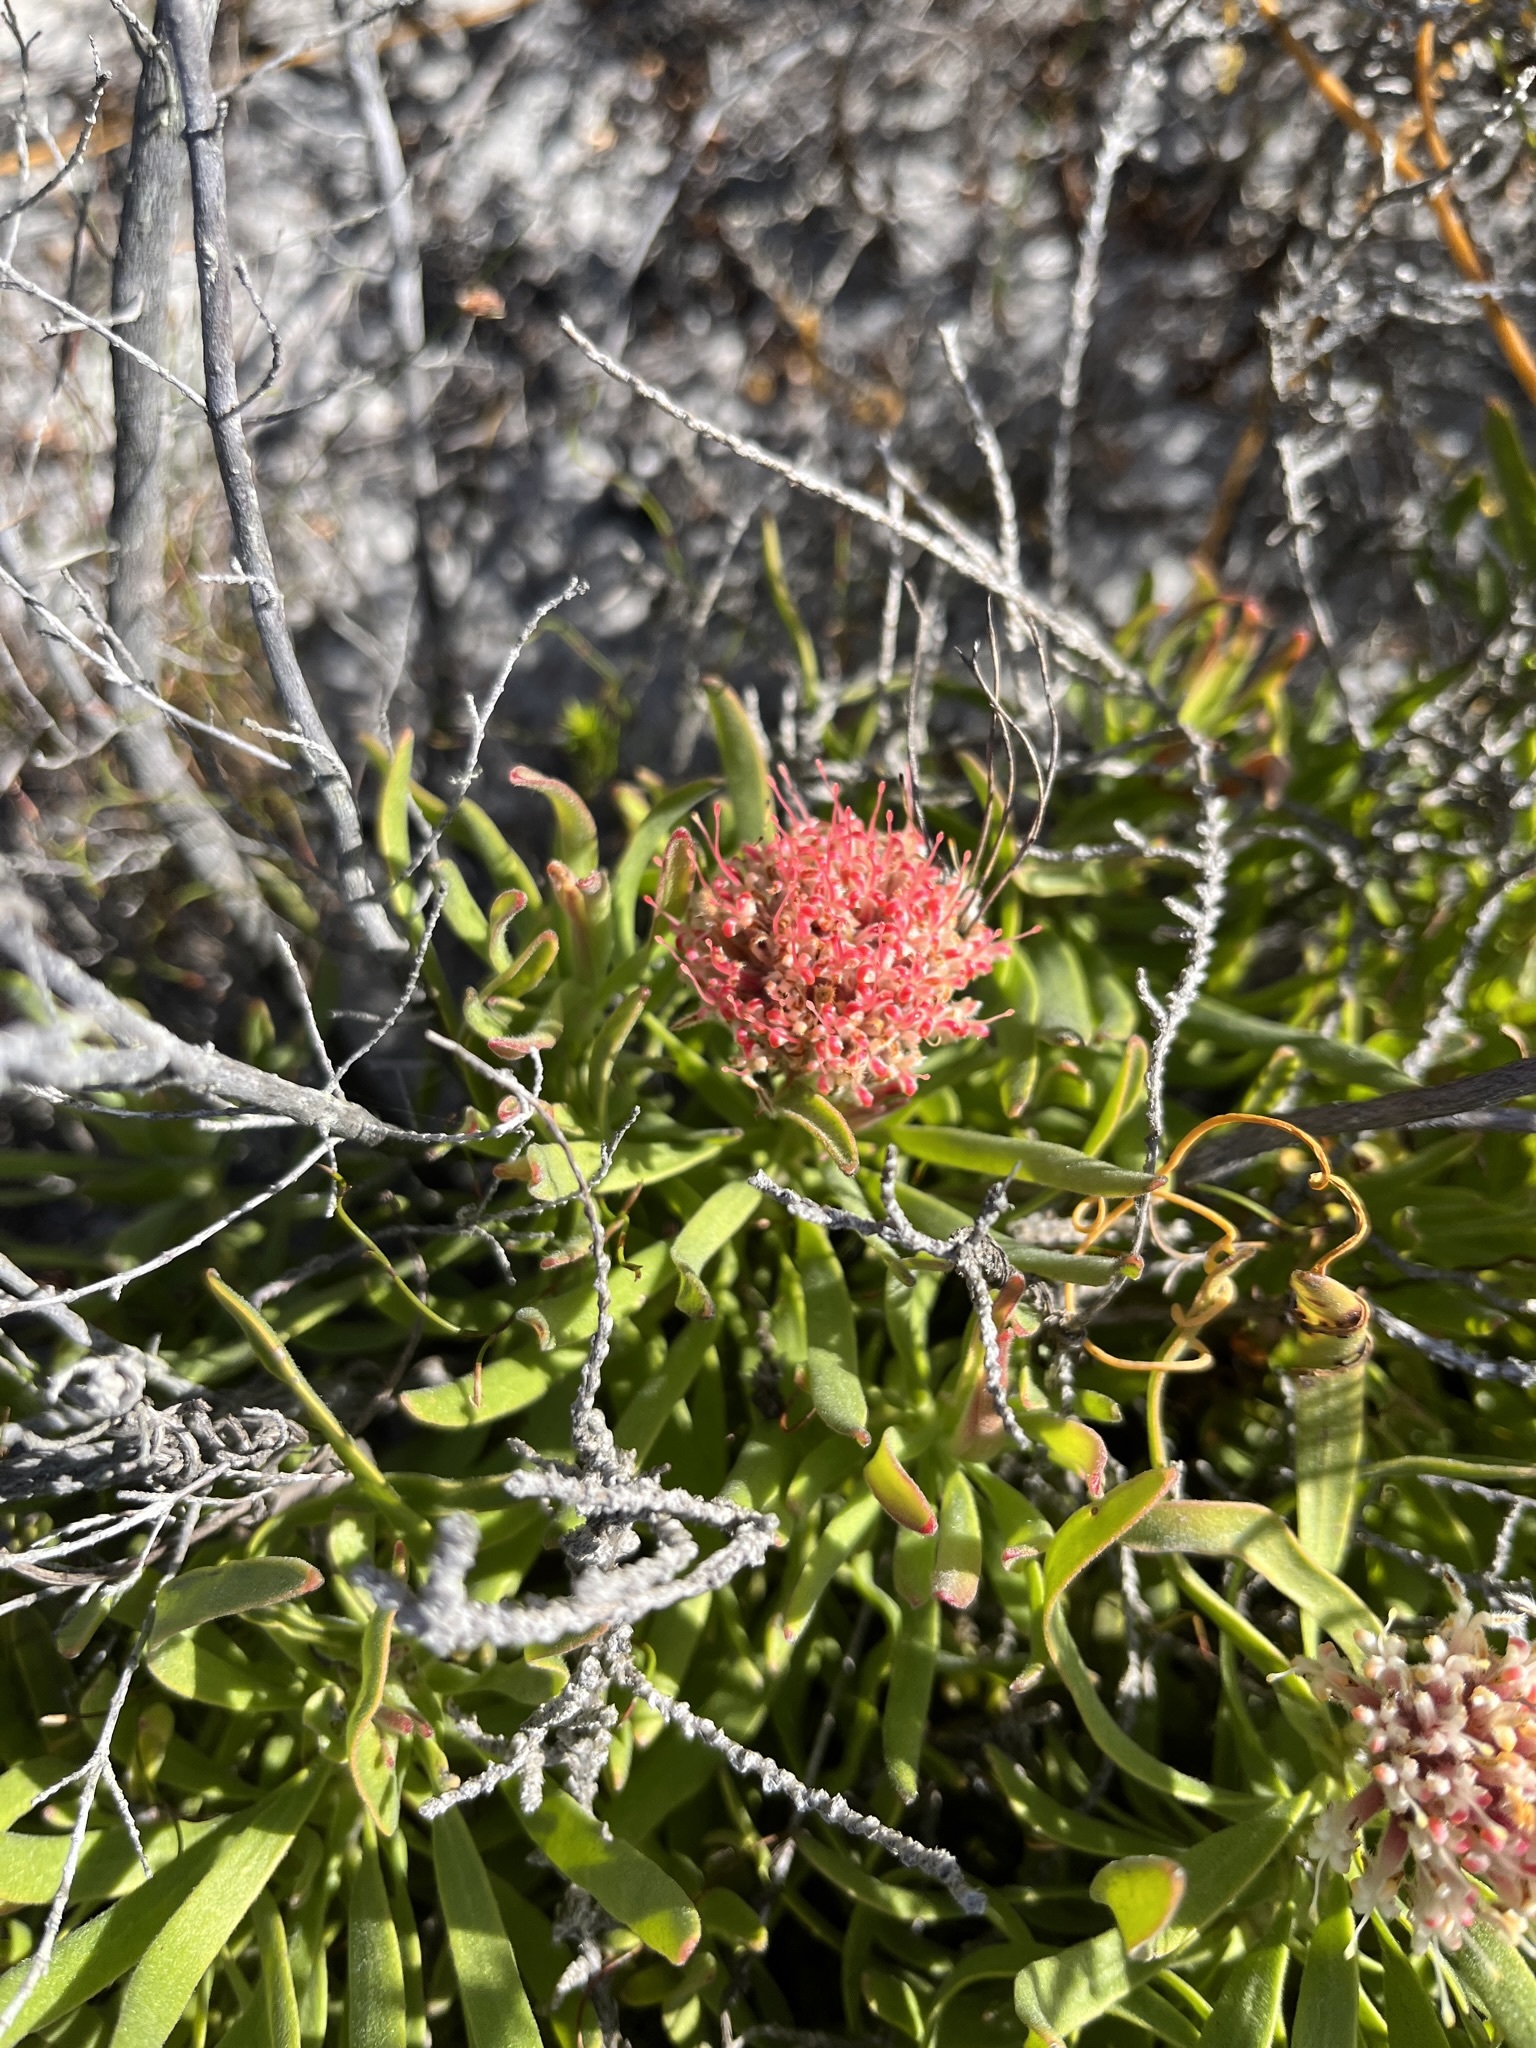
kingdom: Plantae
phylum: Tracheophyta
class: Magnoliopsida
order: Proteales
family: Proteaceae
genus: Leucospermum
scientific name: Leucospermum pedunculatum
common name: White-trailing pincushion
